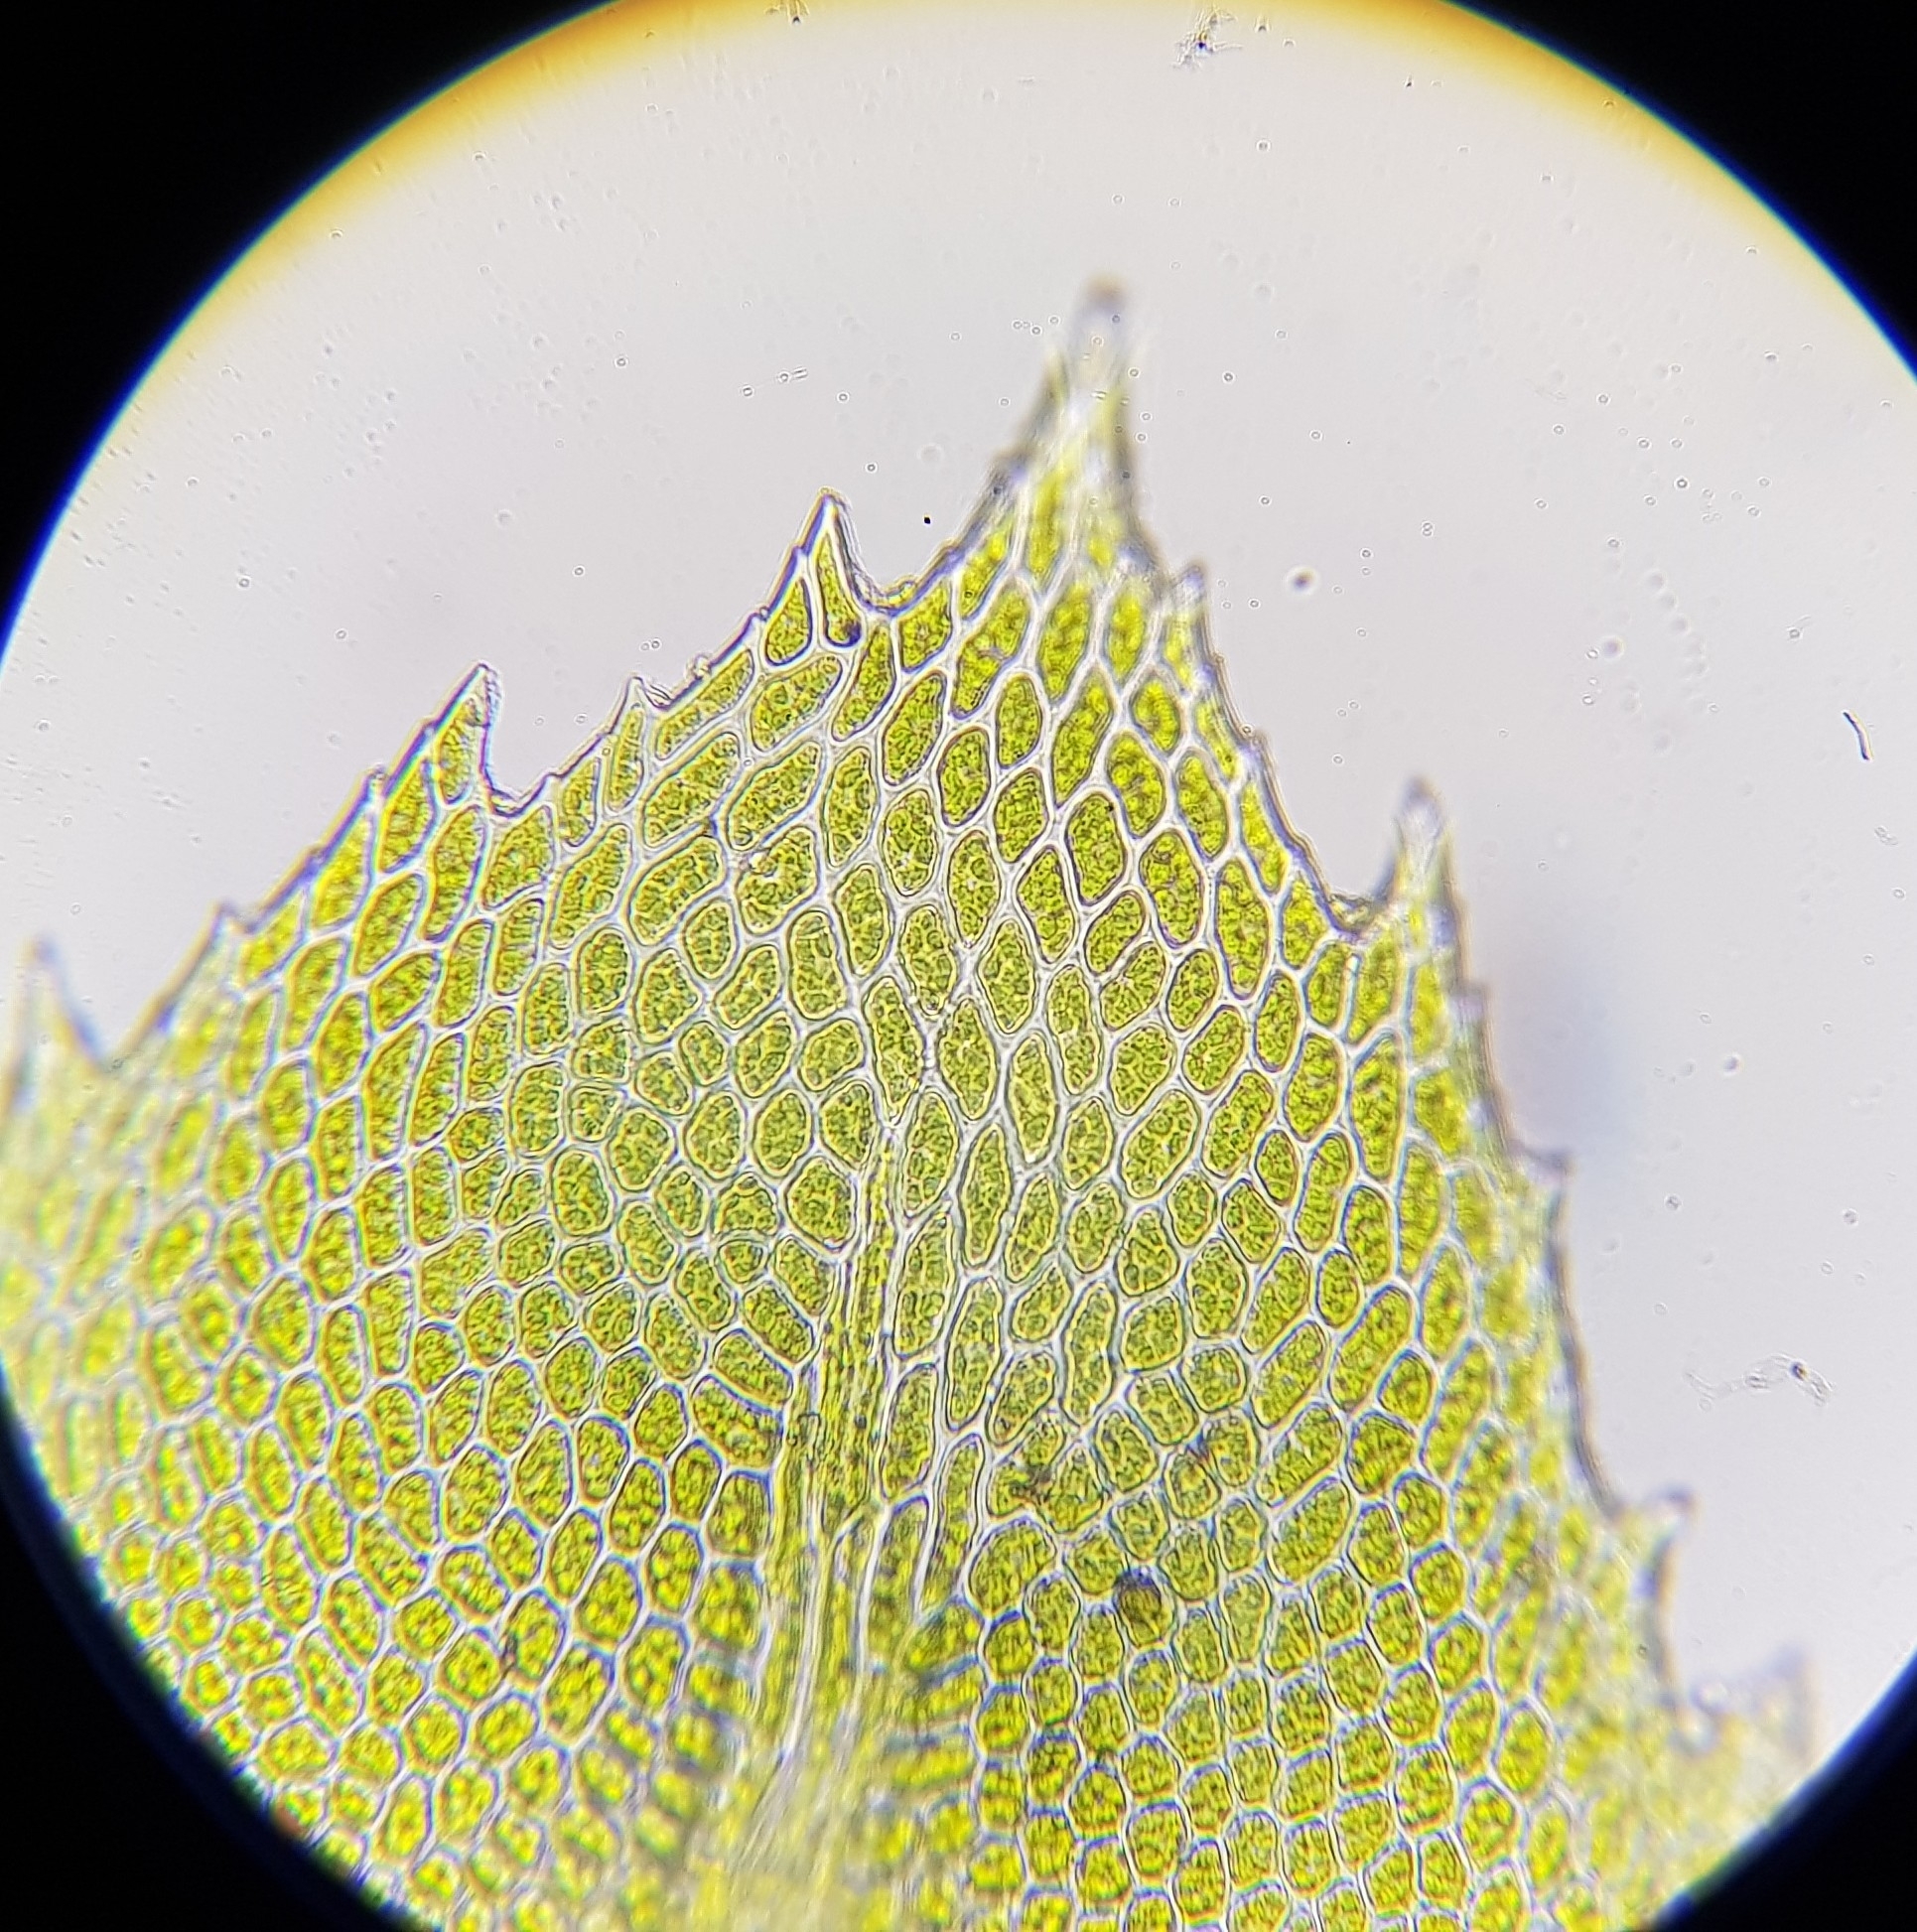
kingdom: Plantae
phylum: Bryophyta
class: Bryopsida
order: Hypnales
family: Neckeraceae
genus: Thamnobryum
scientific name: Thamnobryum alopecurum
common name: Fox-tail feather-moss
